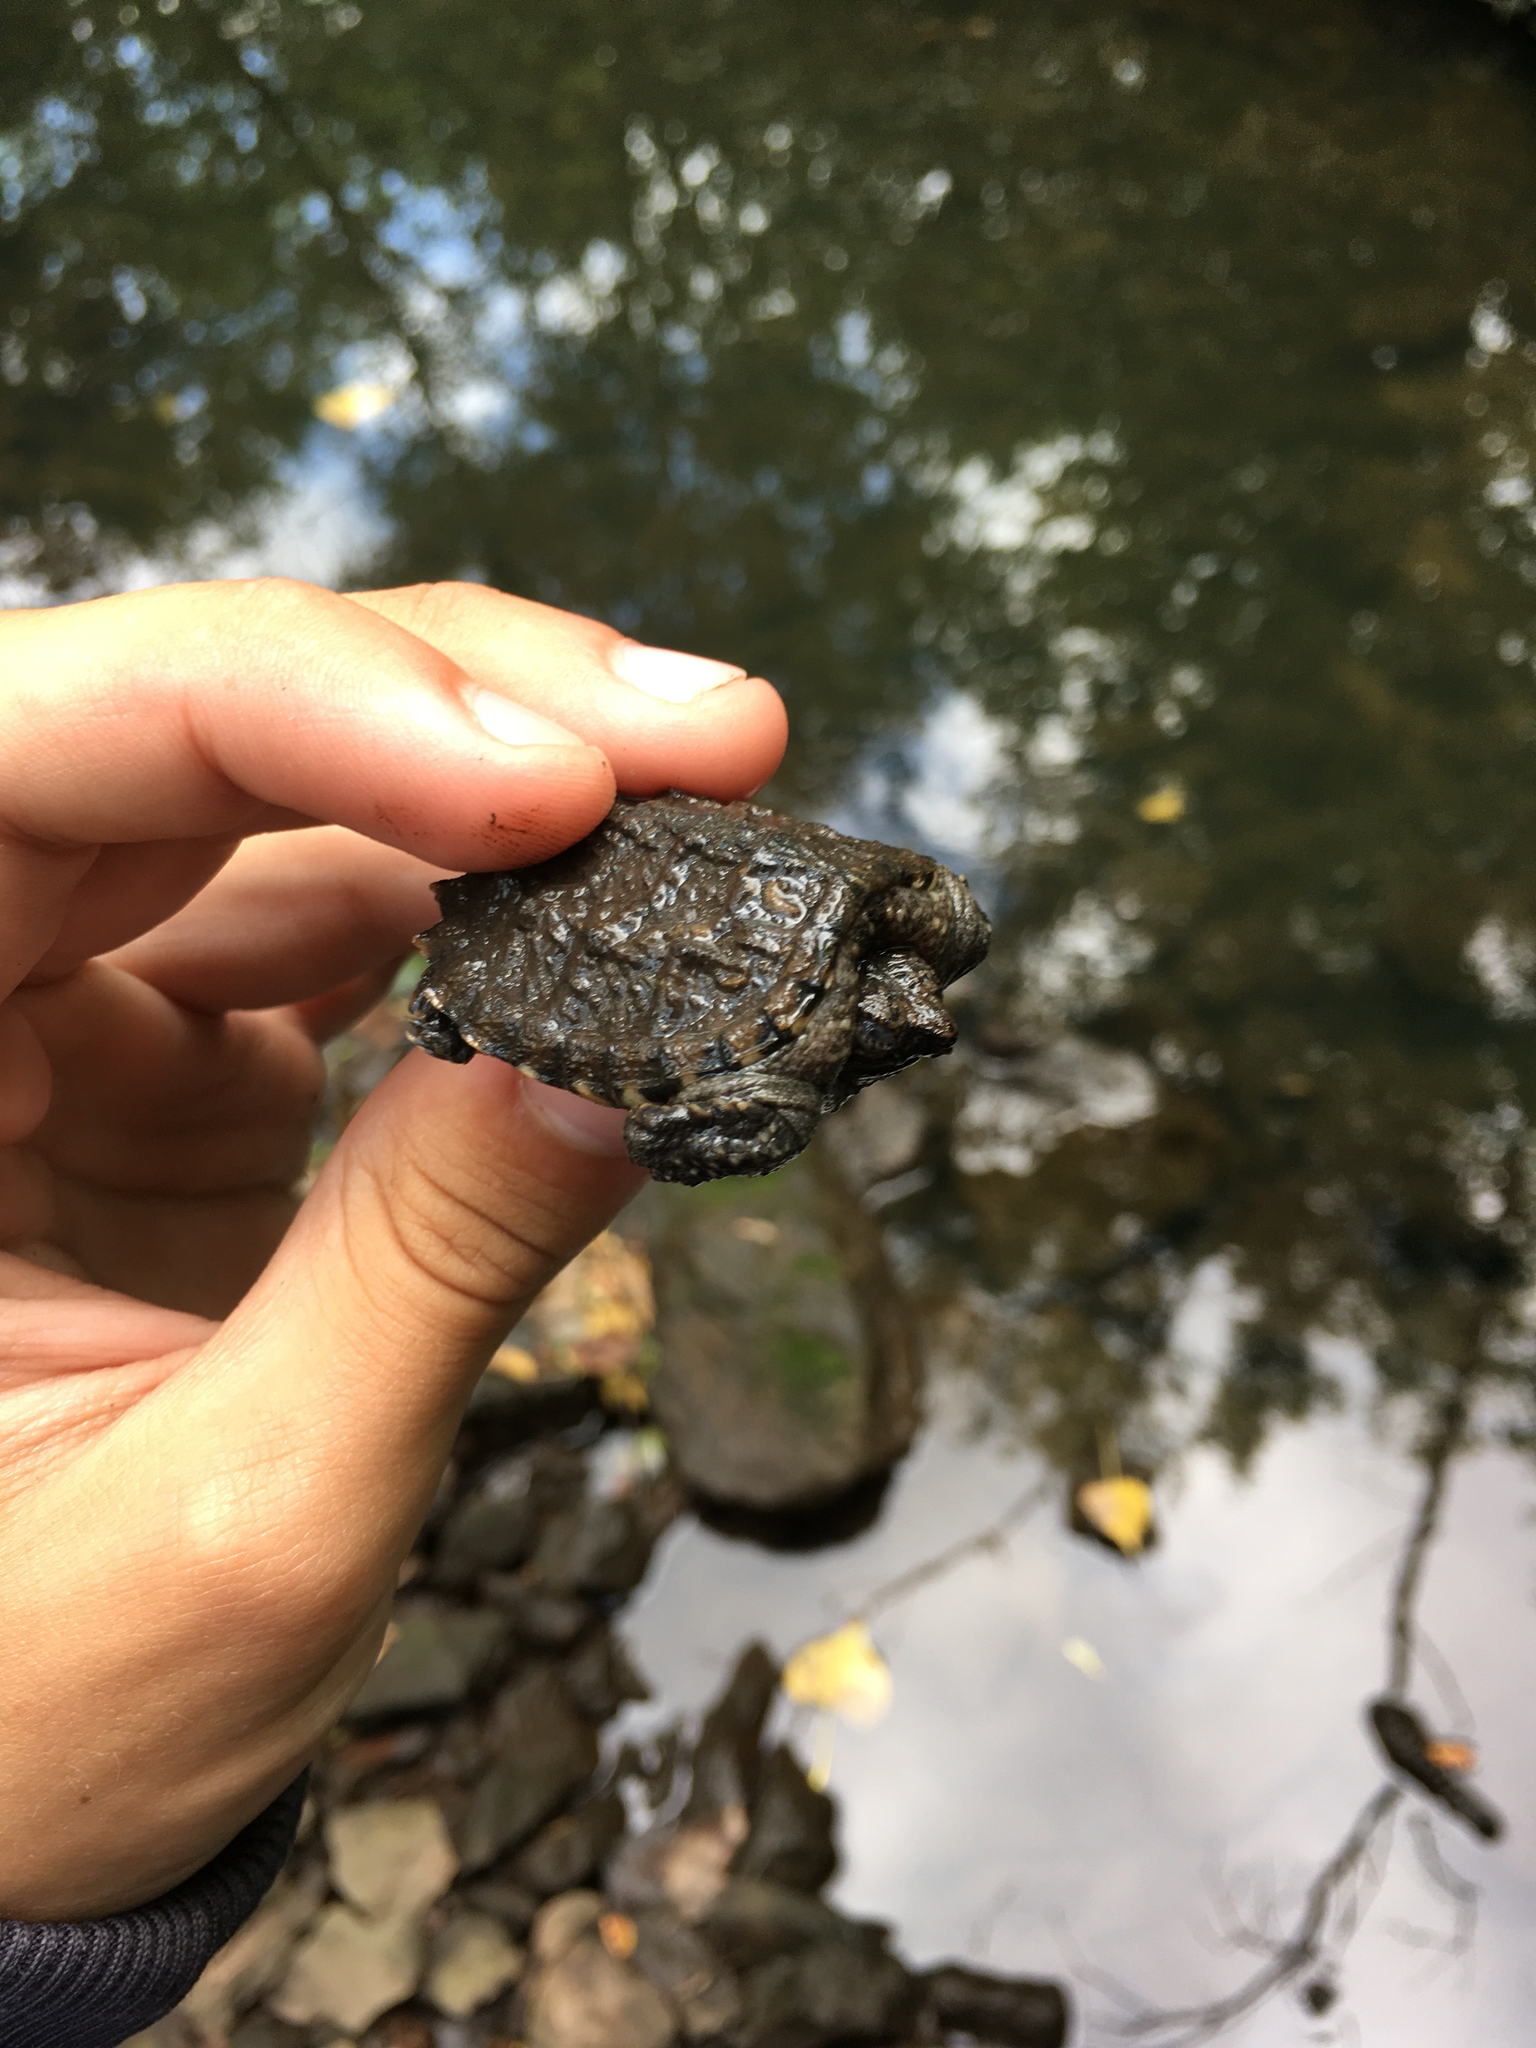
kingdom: Animalia
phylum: Chordata
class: Testudines
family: Chelydridae
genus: Chelydra
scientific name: Chelydra serpentina
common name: Common snapping turtle
